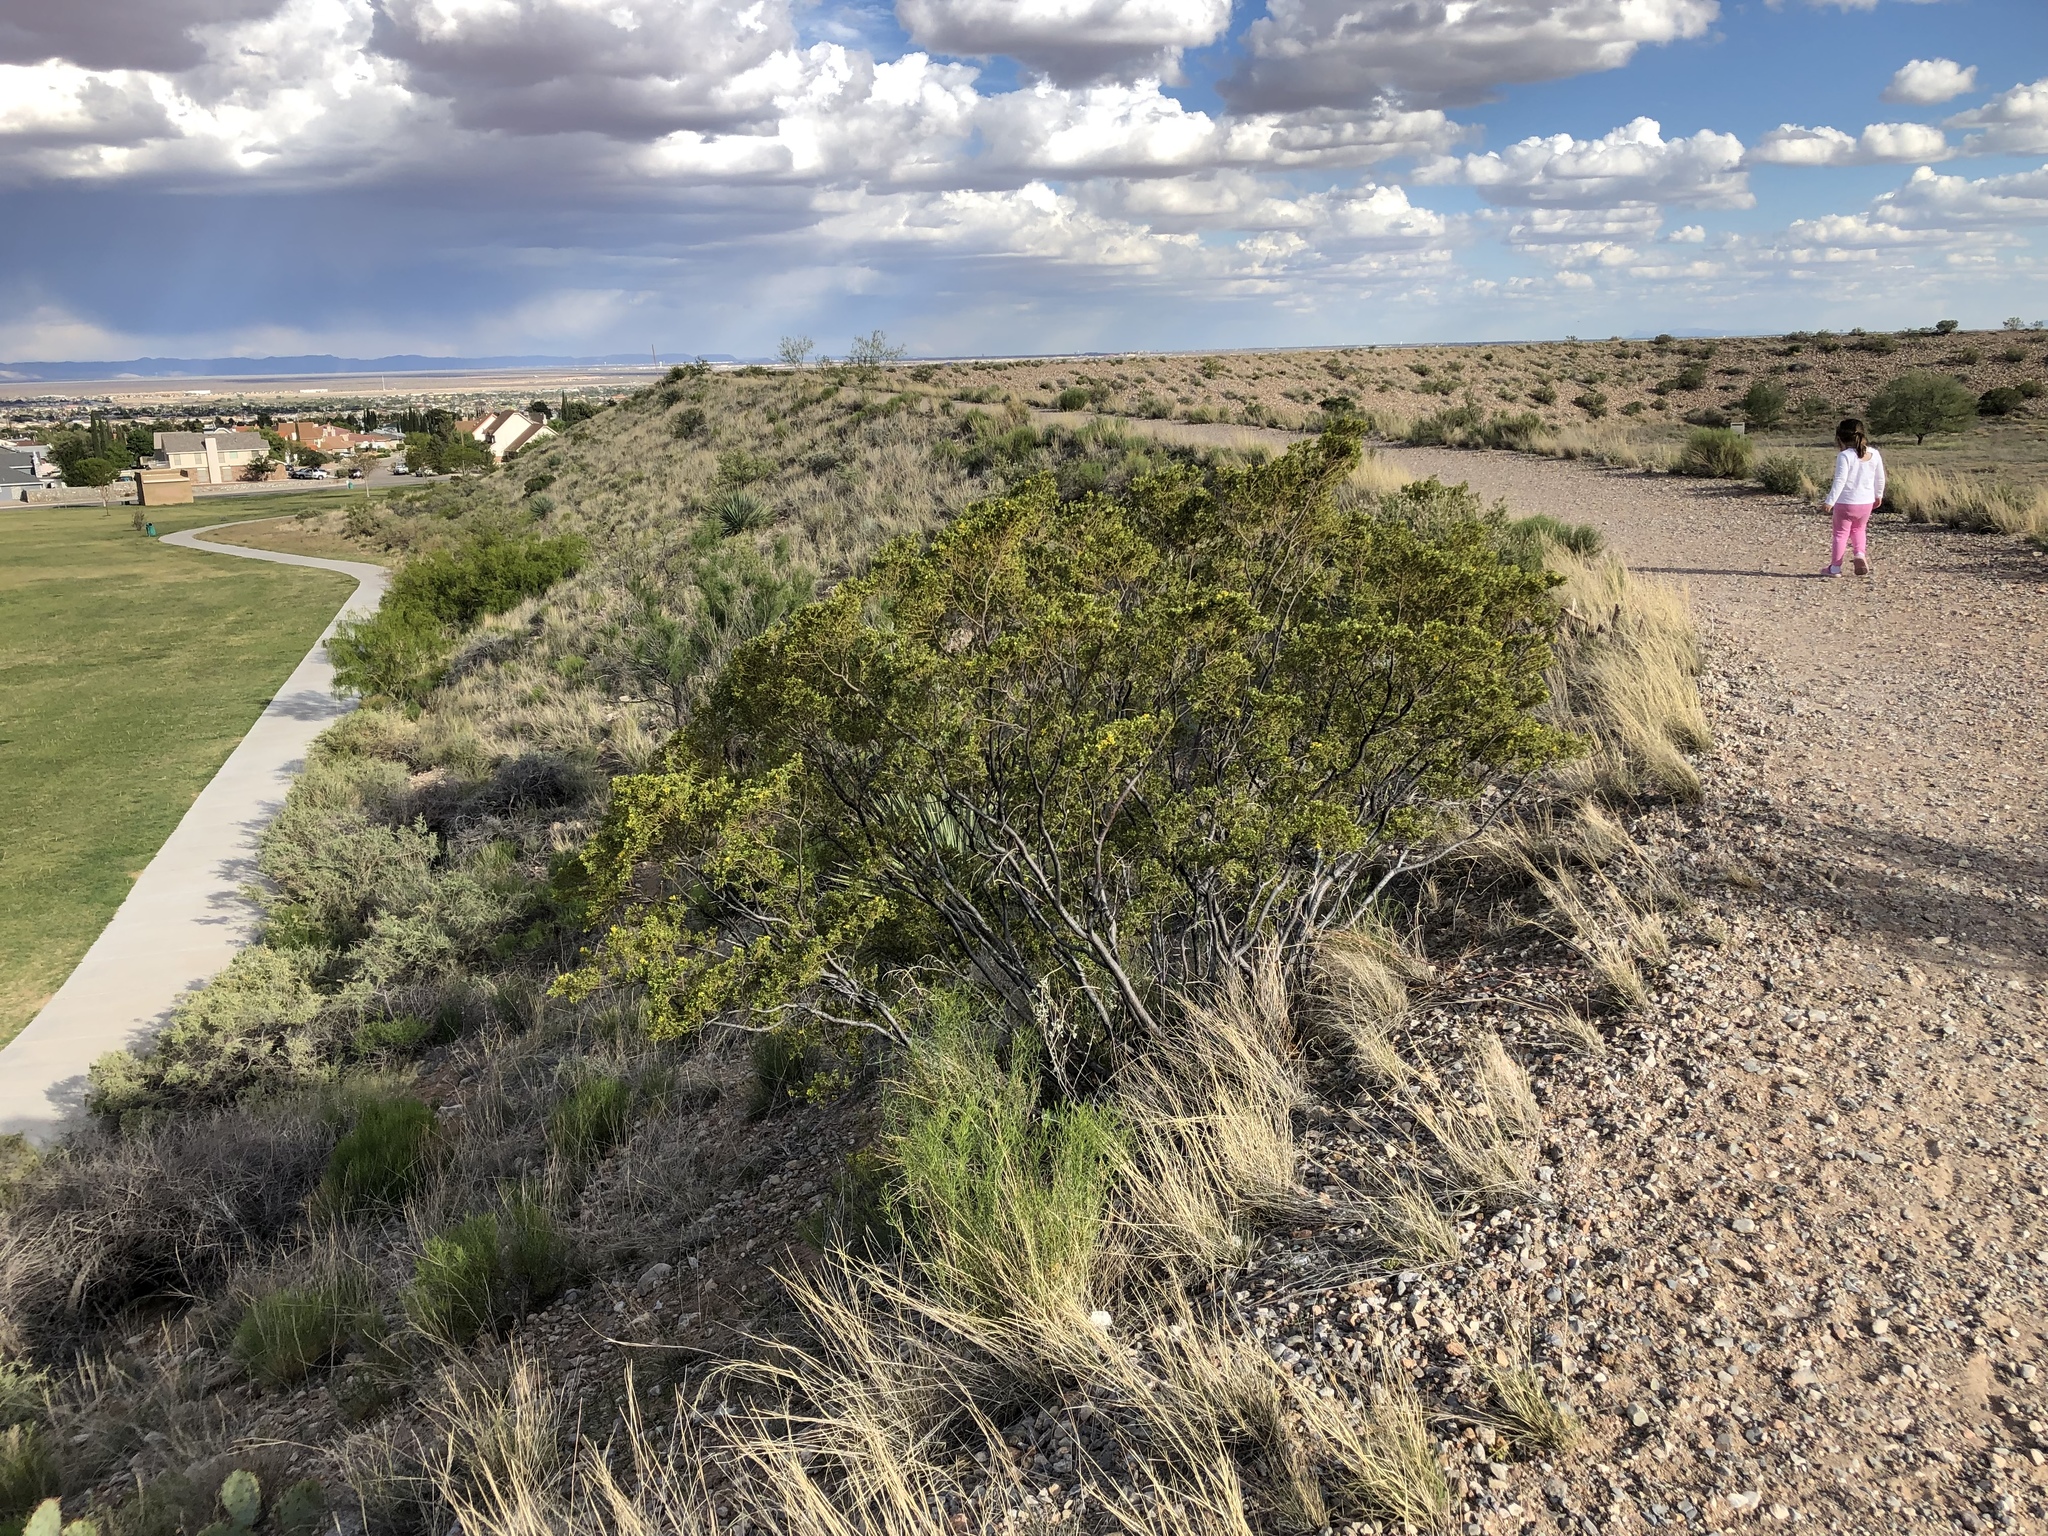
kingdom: Plantae
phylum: Tracheophyta
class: Magnoliopsida
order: Zygophyllales
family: Zygophyllaceae
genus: Larrea
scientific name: Larrea tridentata
